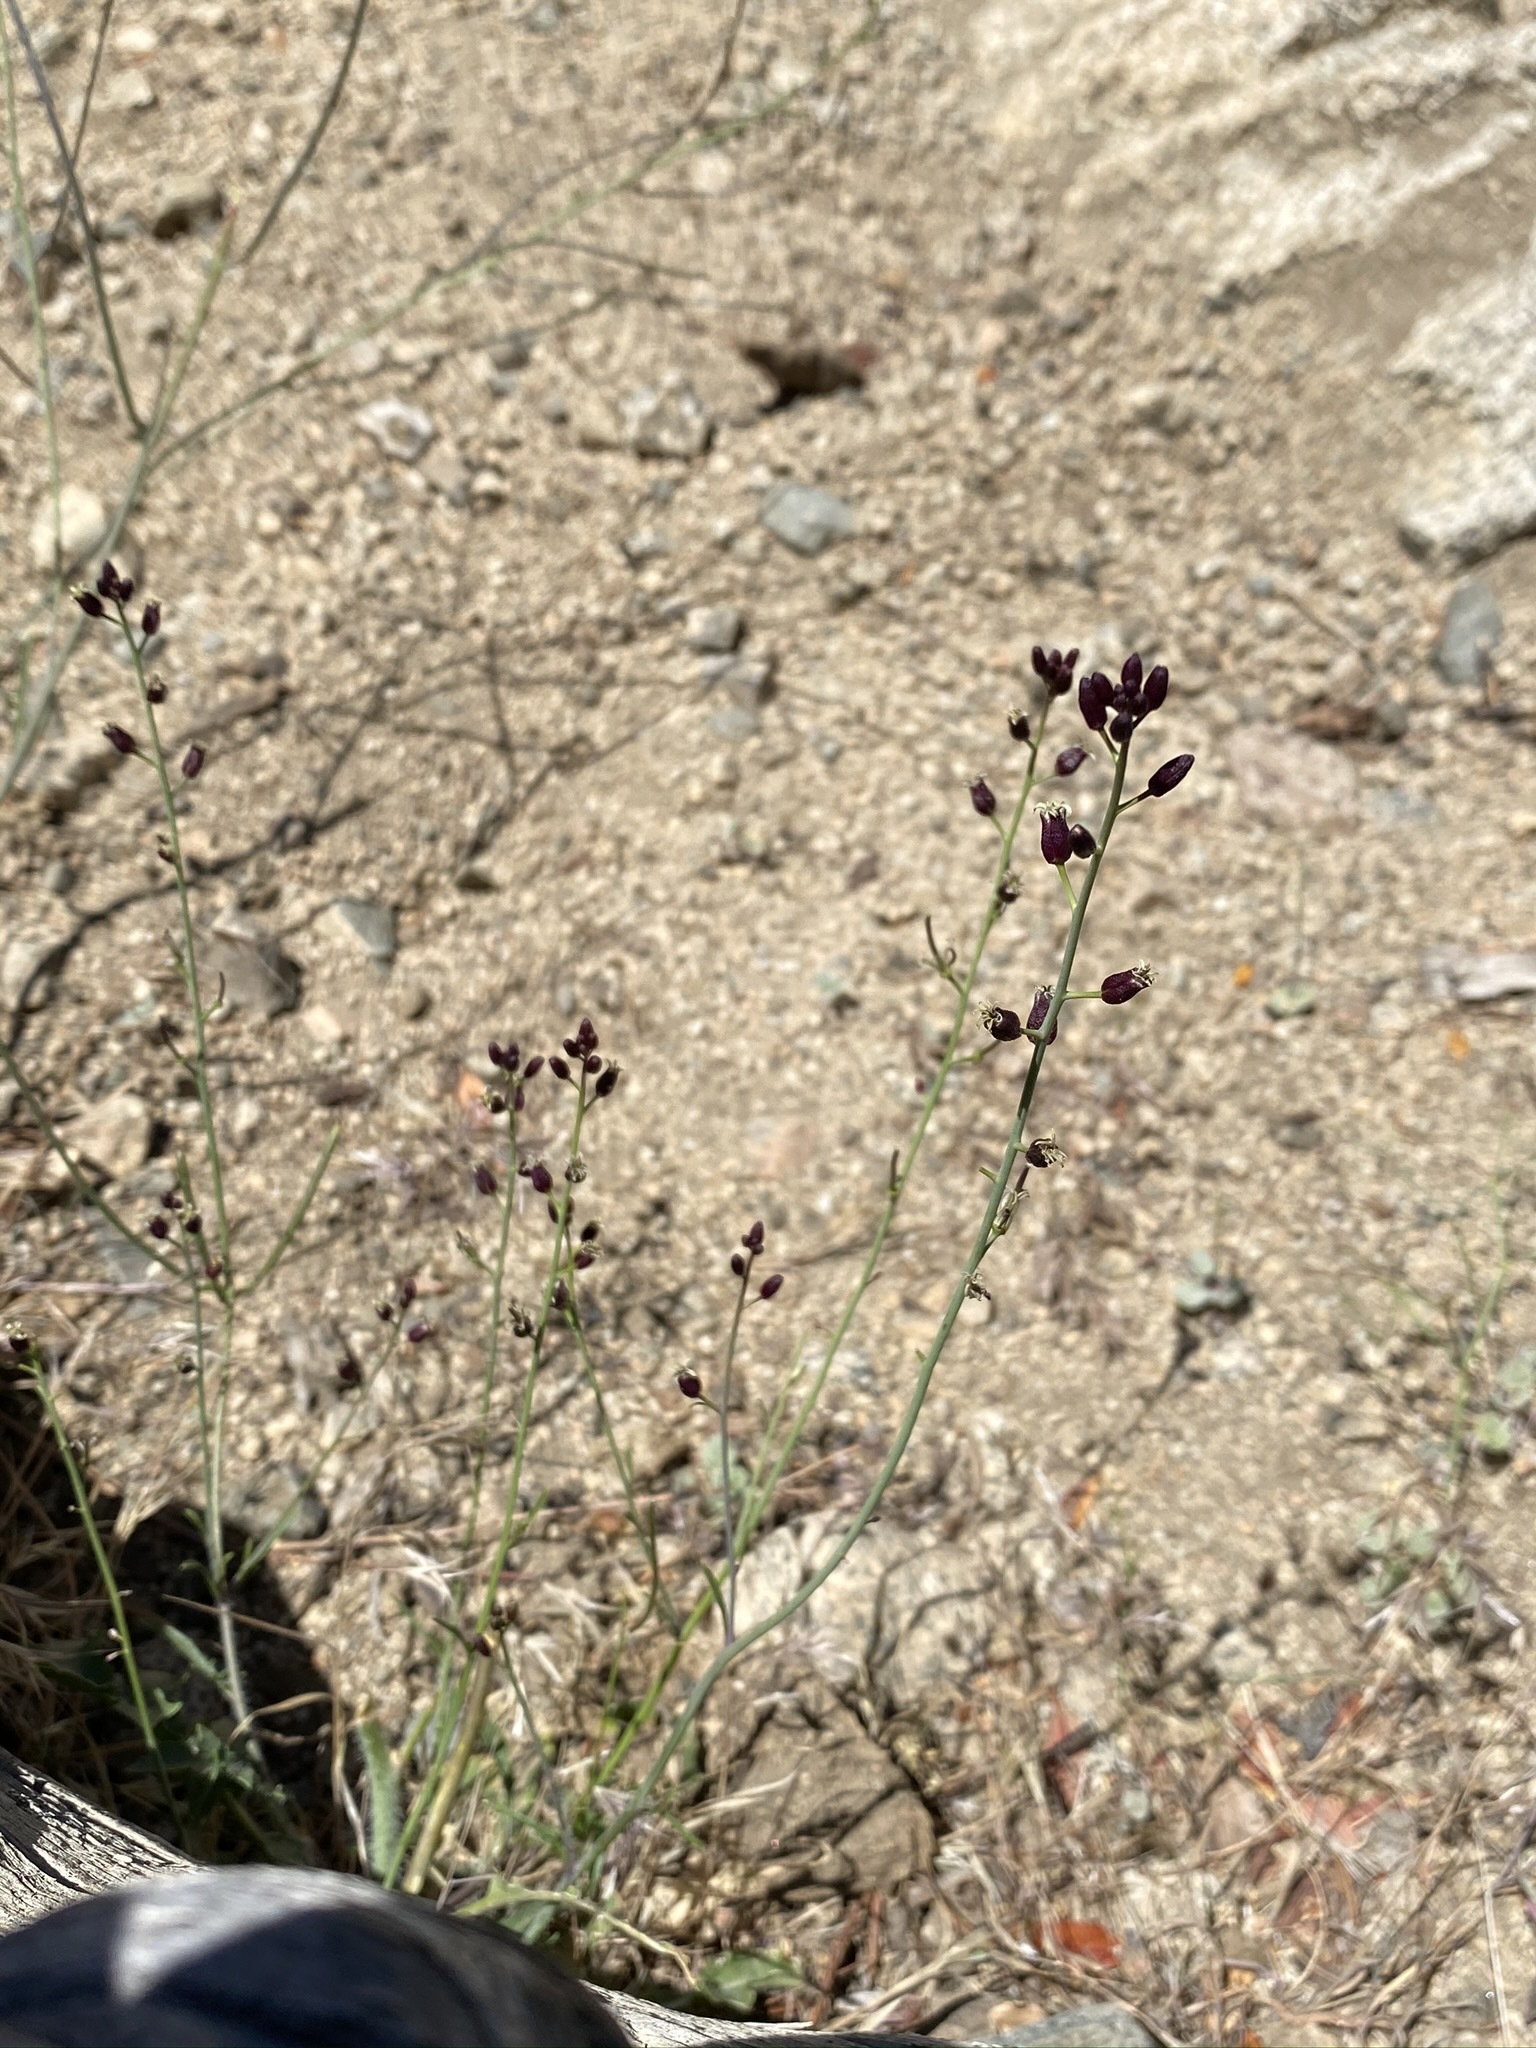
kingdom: Plantae
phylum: Tracheophyta
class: Magnoliopsida
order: Brassicales
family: Brassicaceae
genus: Streptanthus
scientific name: Streptanthus pilosus
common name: Chocolate drops
